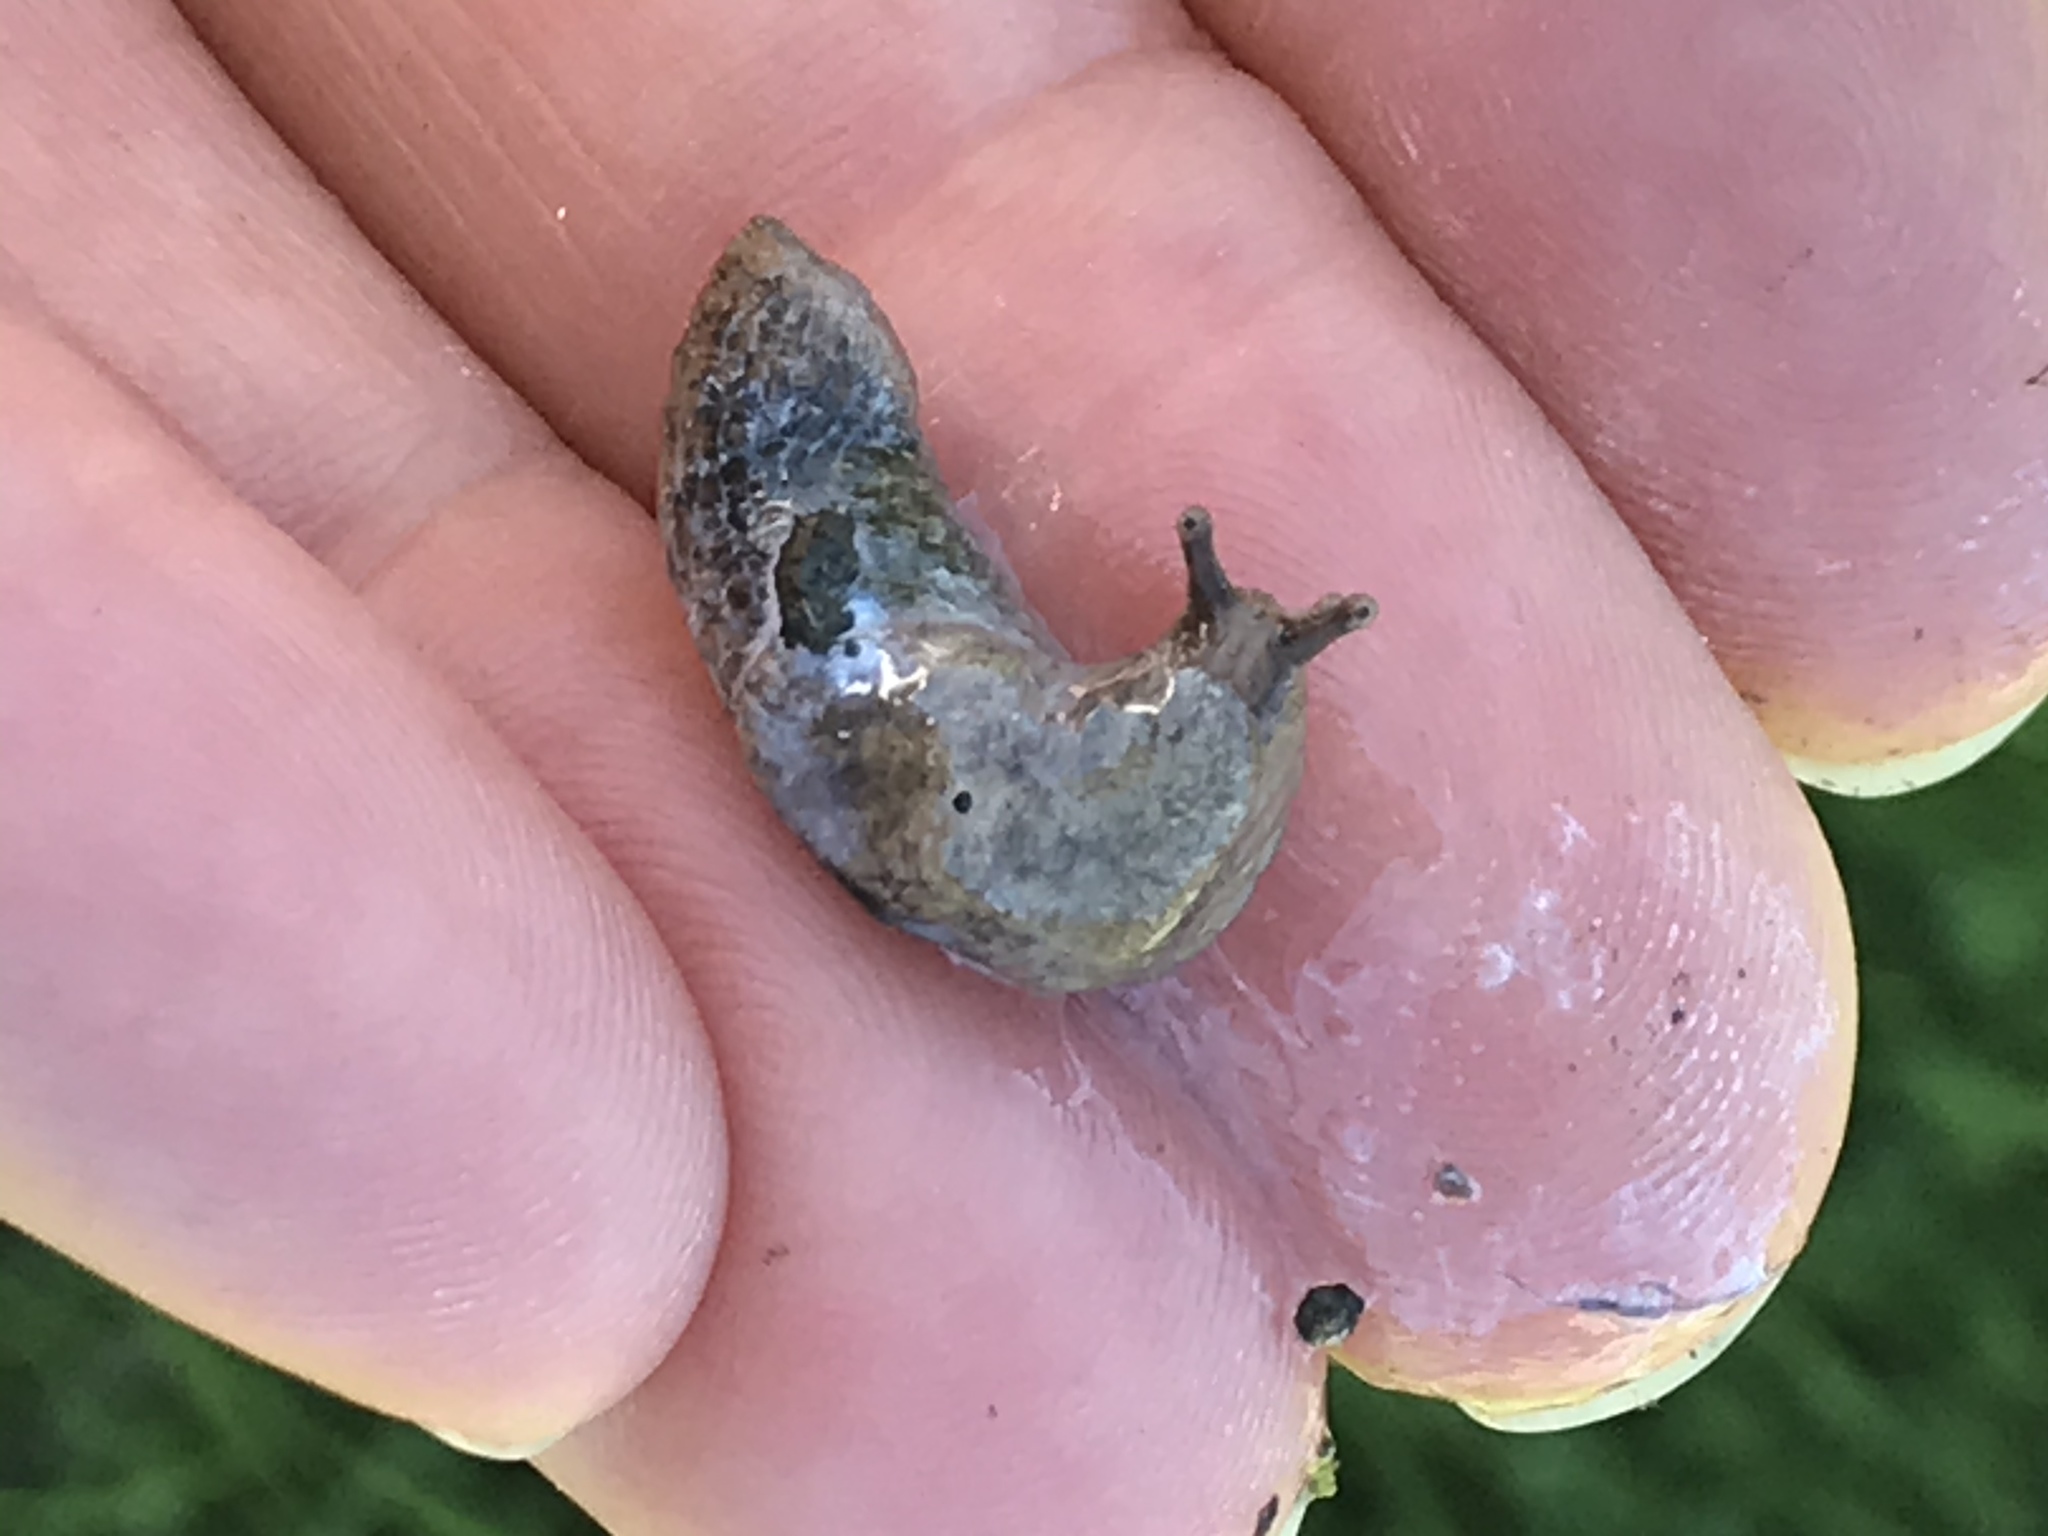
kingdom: Animalia
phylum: Mollusca
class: Gastropoda
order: Stylommatophora
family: Agriolimacidae
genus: Deroceras
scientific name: Deroceras reticulatum
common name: Gray field slug
